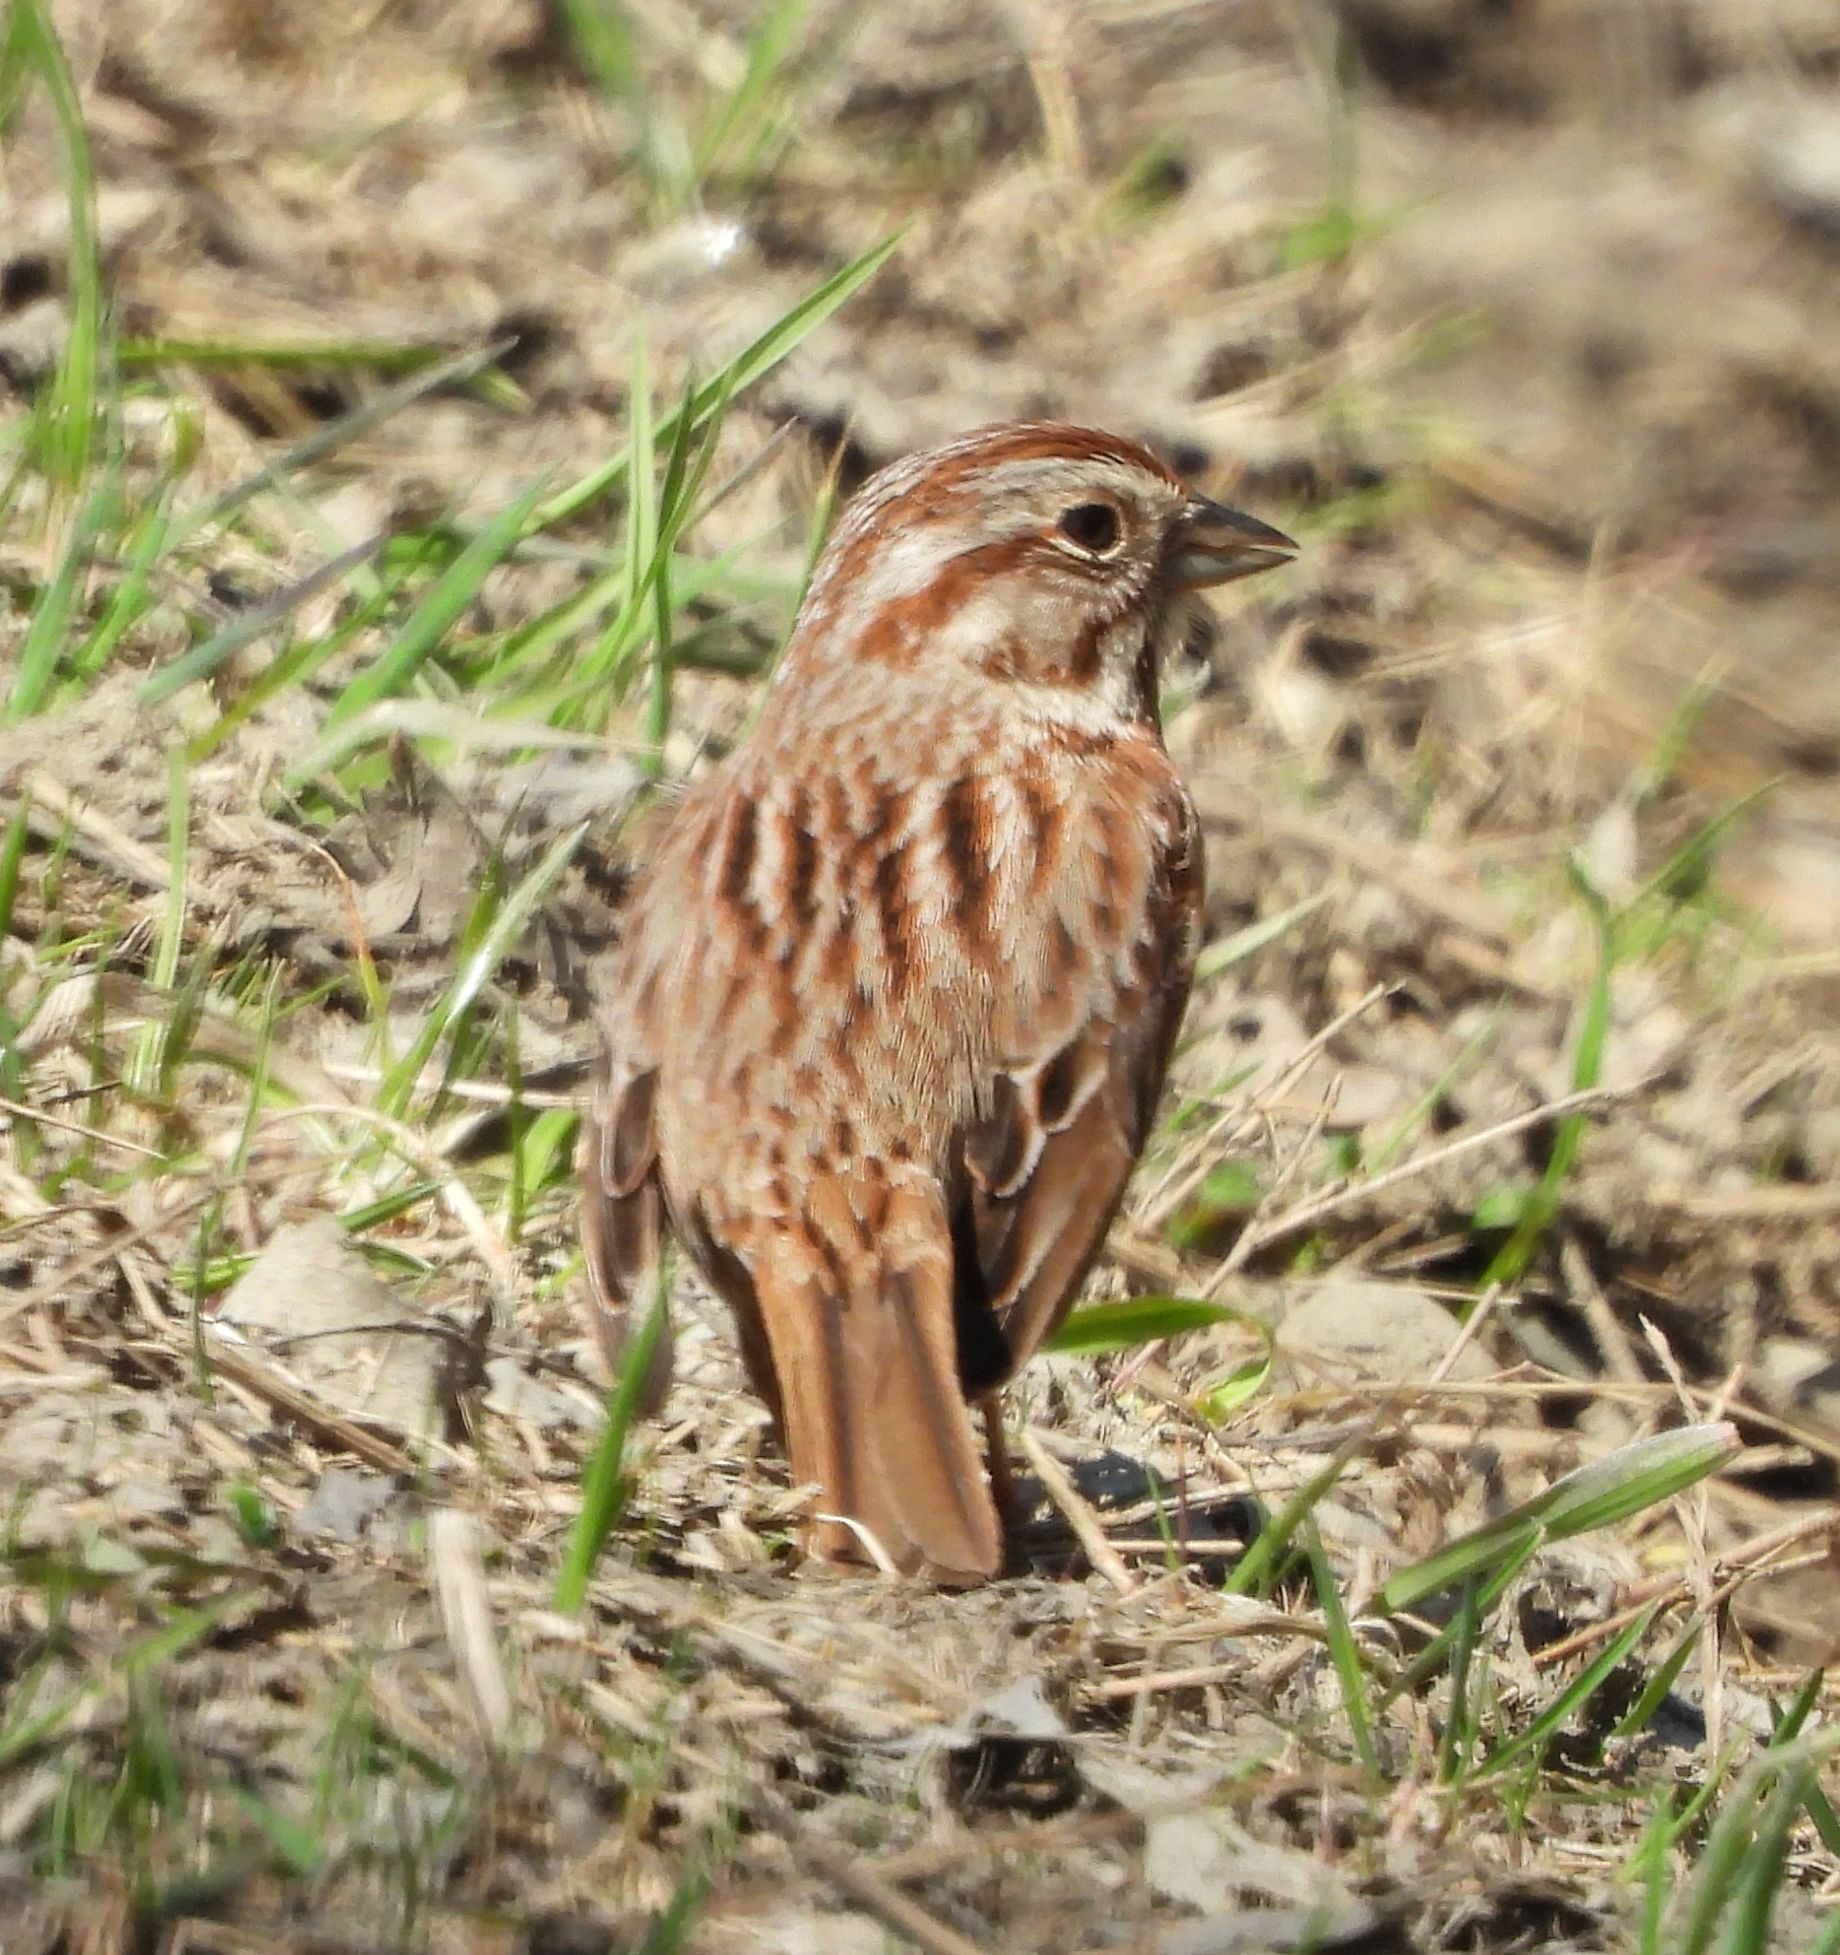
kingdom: Animalia
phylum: Chordata
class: Aves
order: Passeriformes
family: Passerellidae
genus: Melospiza
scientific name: Melospiza melodia
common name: Song sparrow
